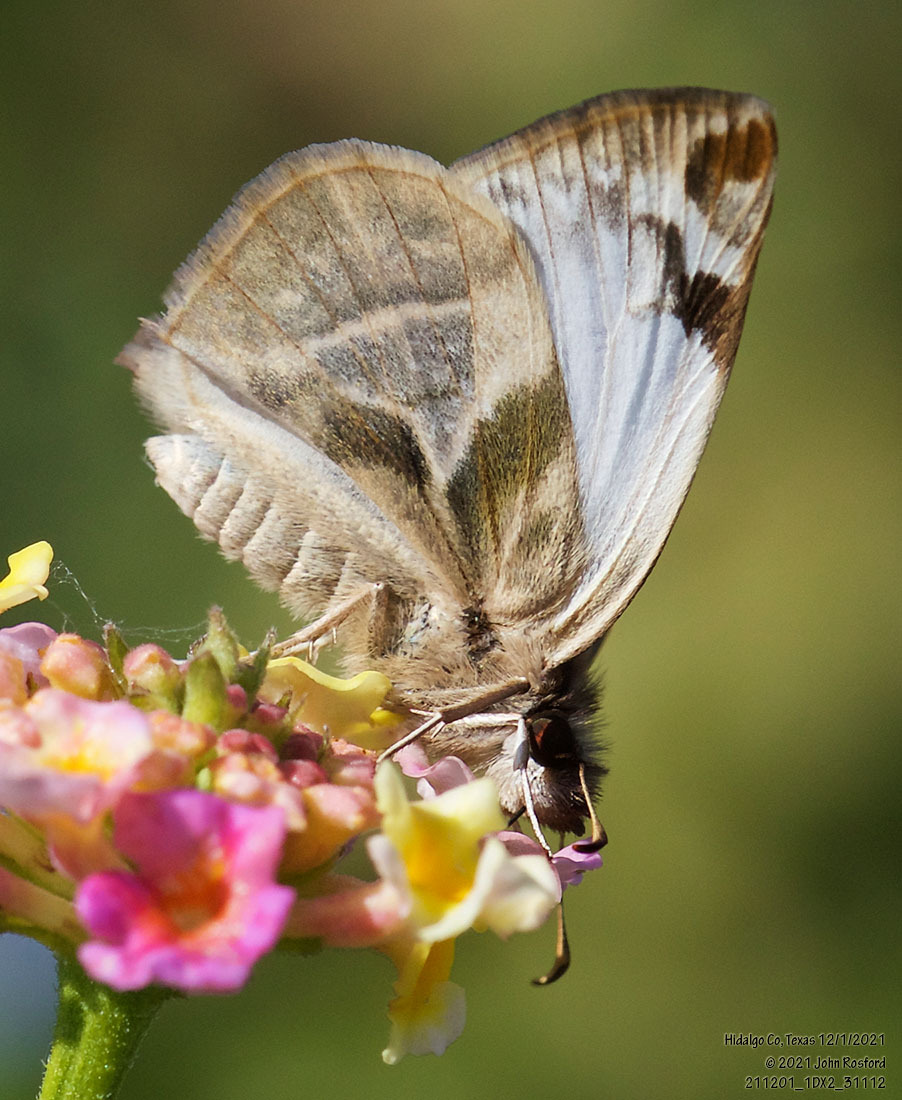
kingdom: Animalia
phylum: Arthropoda
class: Insecta
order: Lepidoptera
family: Hesperiidae
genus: Heliopetes
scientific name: Heliopetes laviana
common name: Laviana white-skipper
